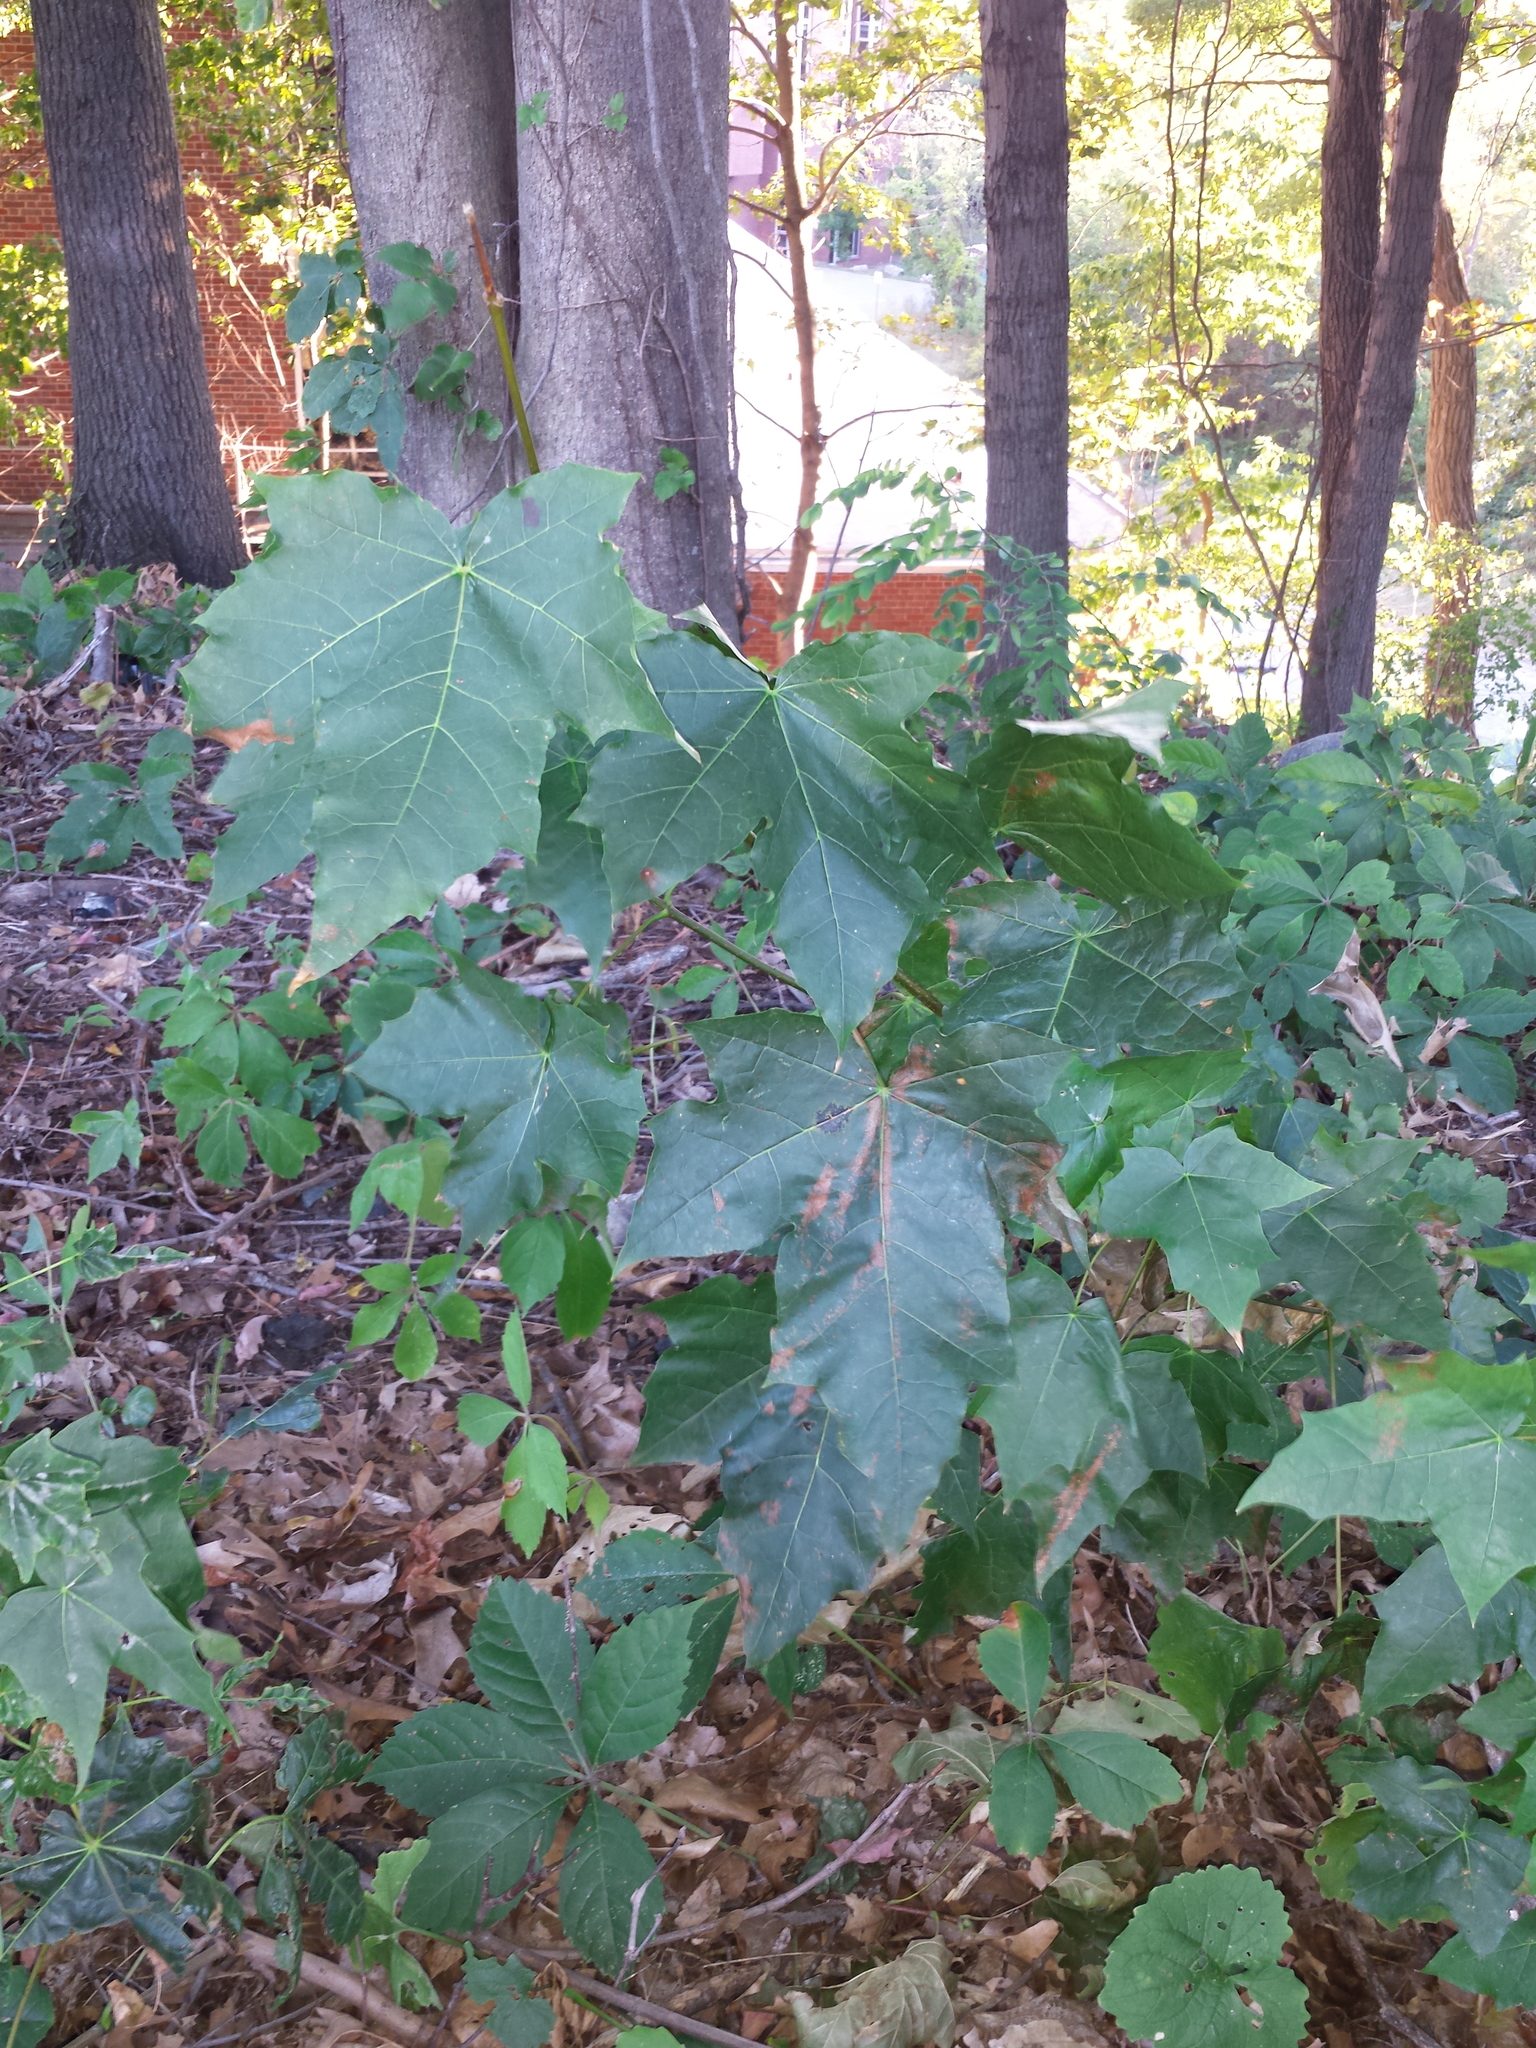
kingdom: Plantae
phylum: Tracheophyta
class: Magnoliopsida
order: Sapindales
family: Sapindaceae
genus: Acer
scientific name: Acer platanoides
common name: Norway maple
